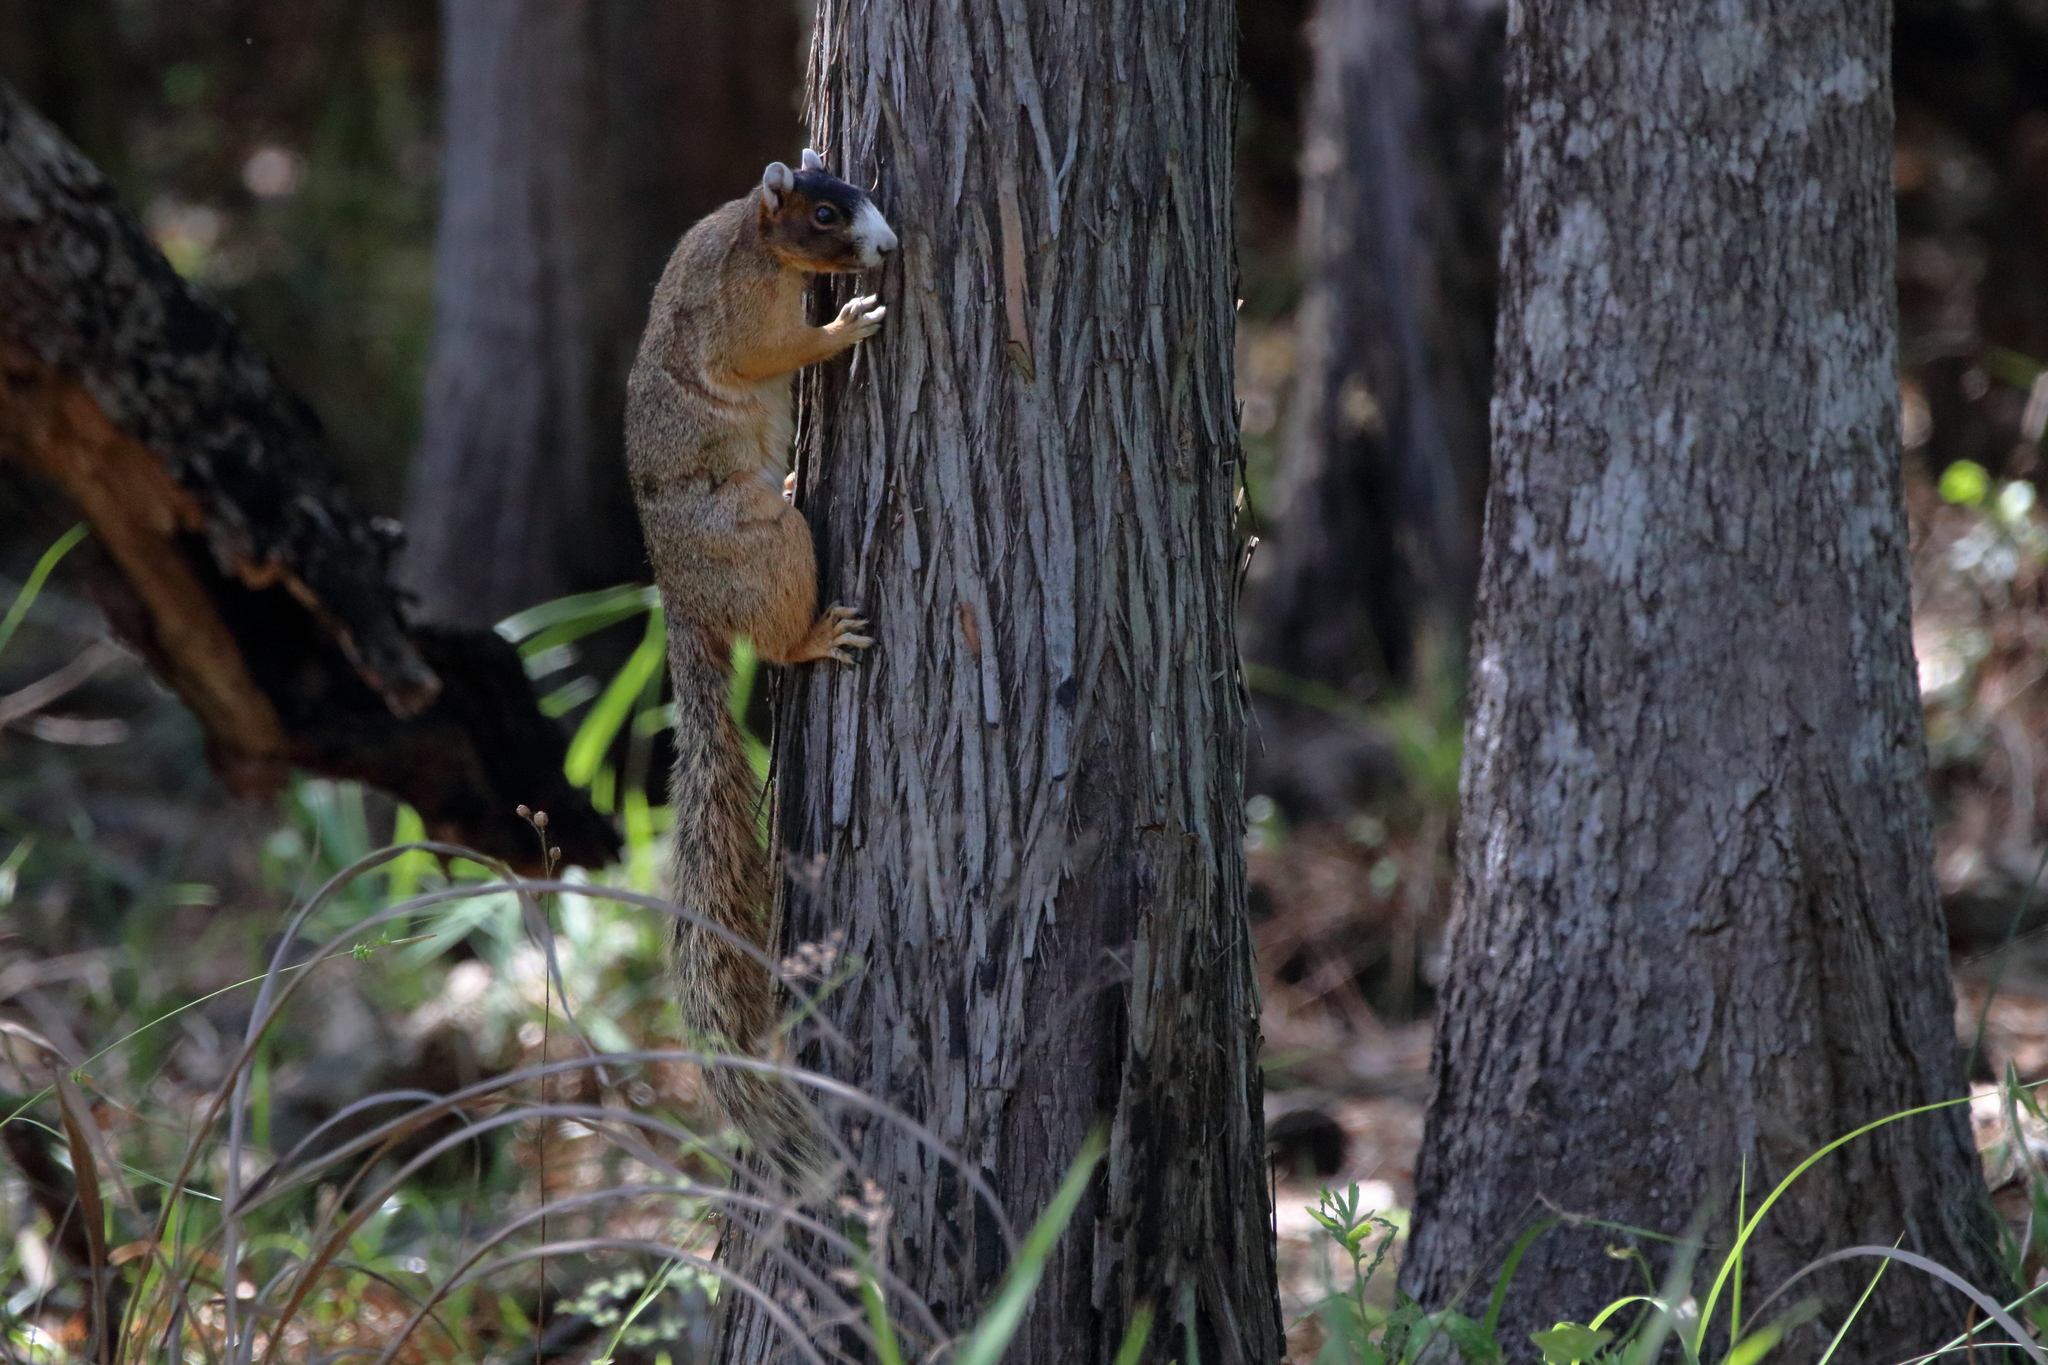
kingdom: Animalia
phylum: Chordata
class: Mammalia
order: Rodentia
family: Sciuridae
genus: Sciurus
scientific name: Sciurus niger
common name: Fox squirrel
